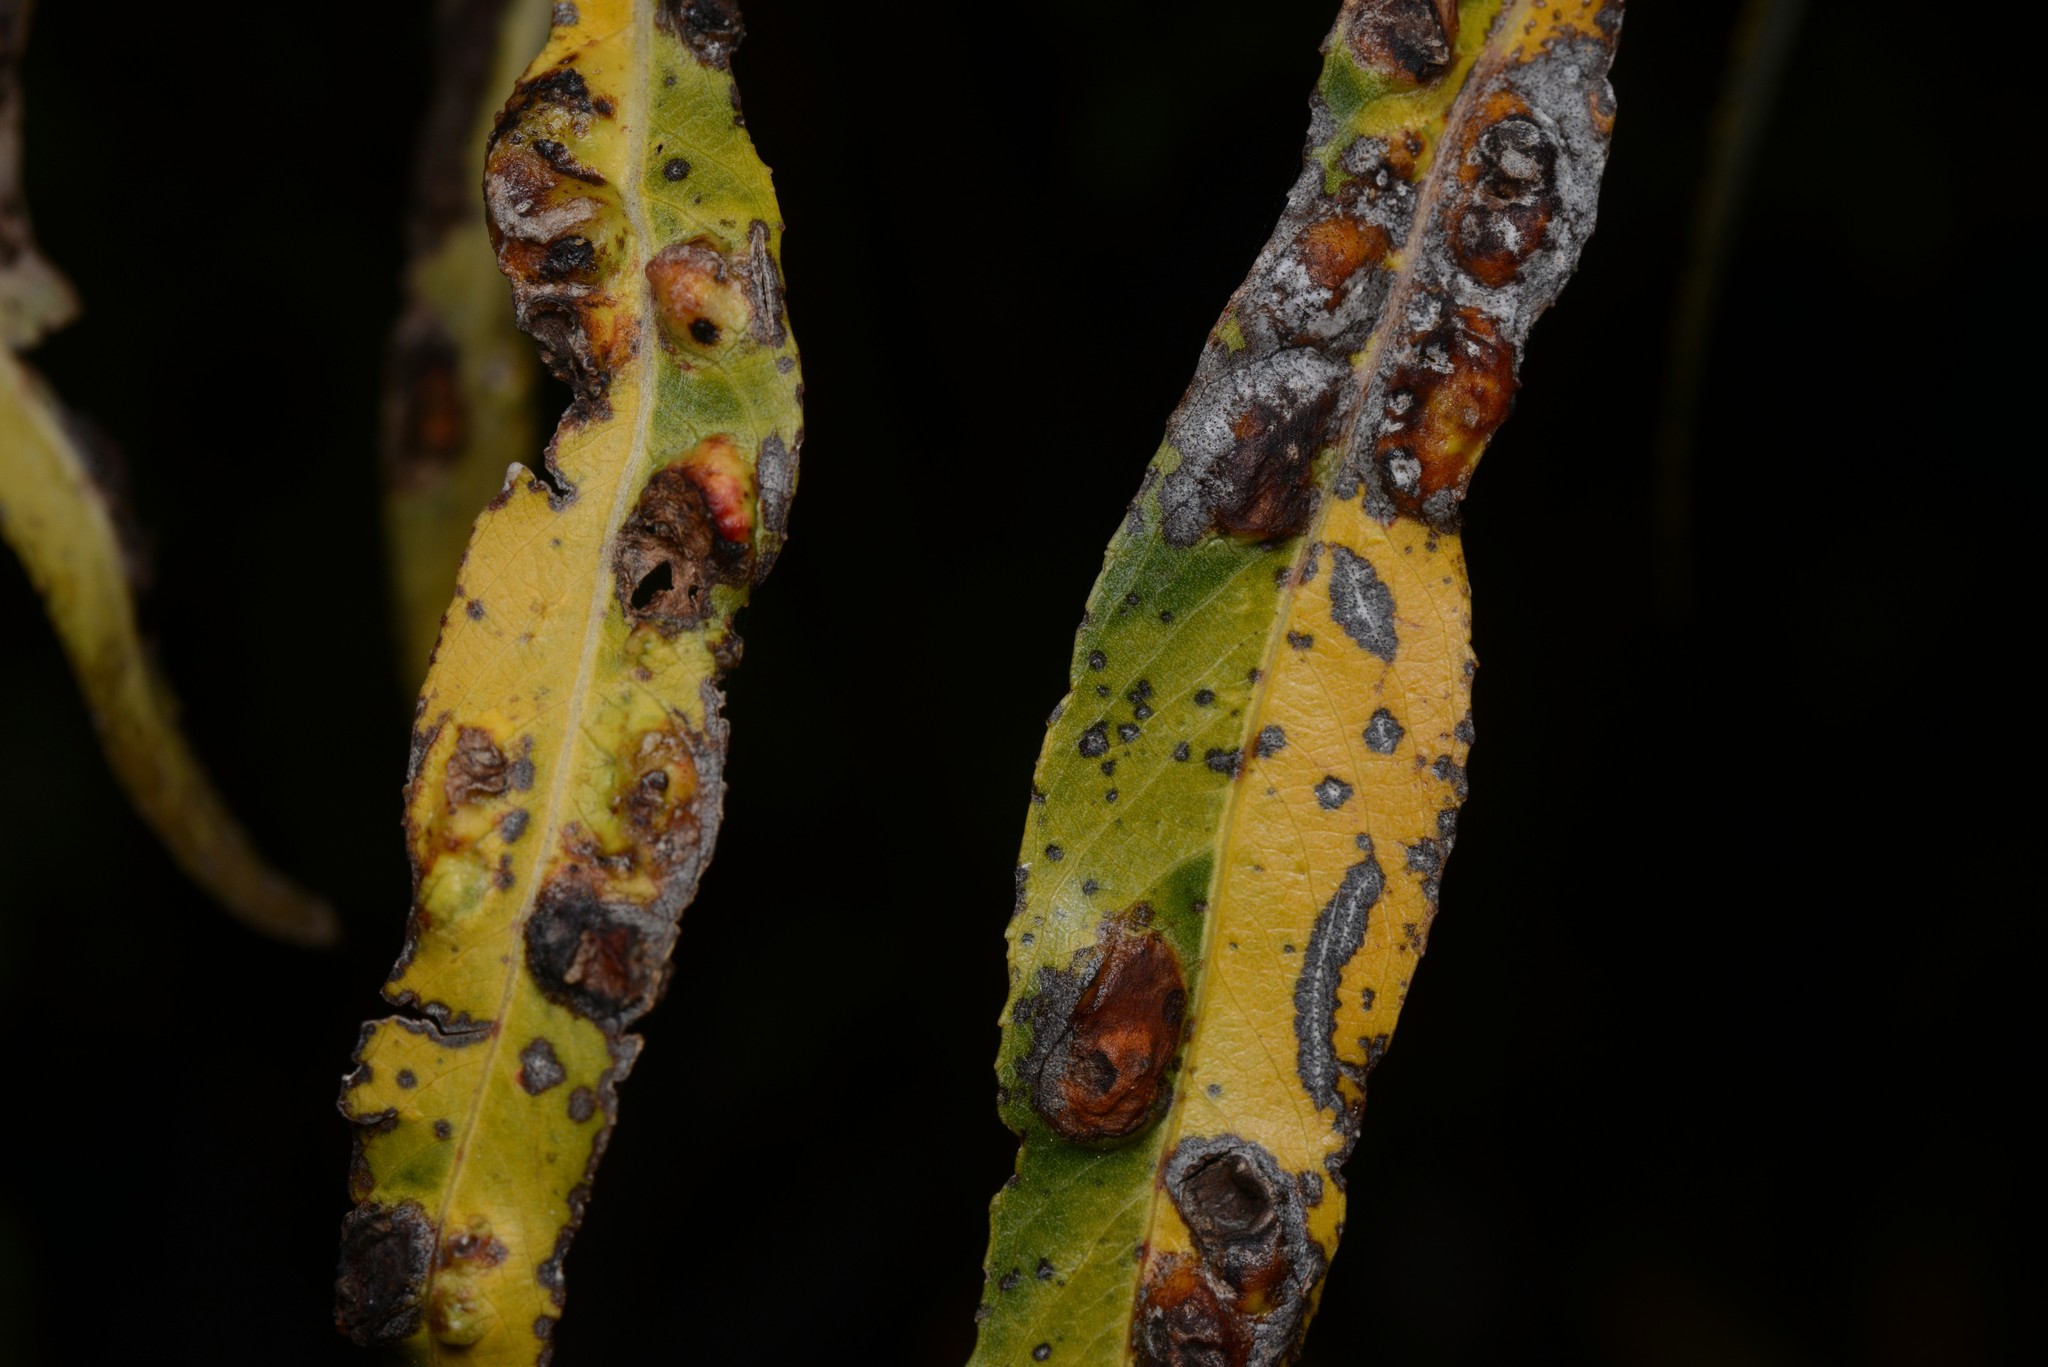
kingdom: Animalia
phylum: Arthropoda
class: Insecta
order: Hymenoptera
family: Tenthredinidae
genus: Pontania
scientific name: Pontania proxima
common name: Common sawfly
